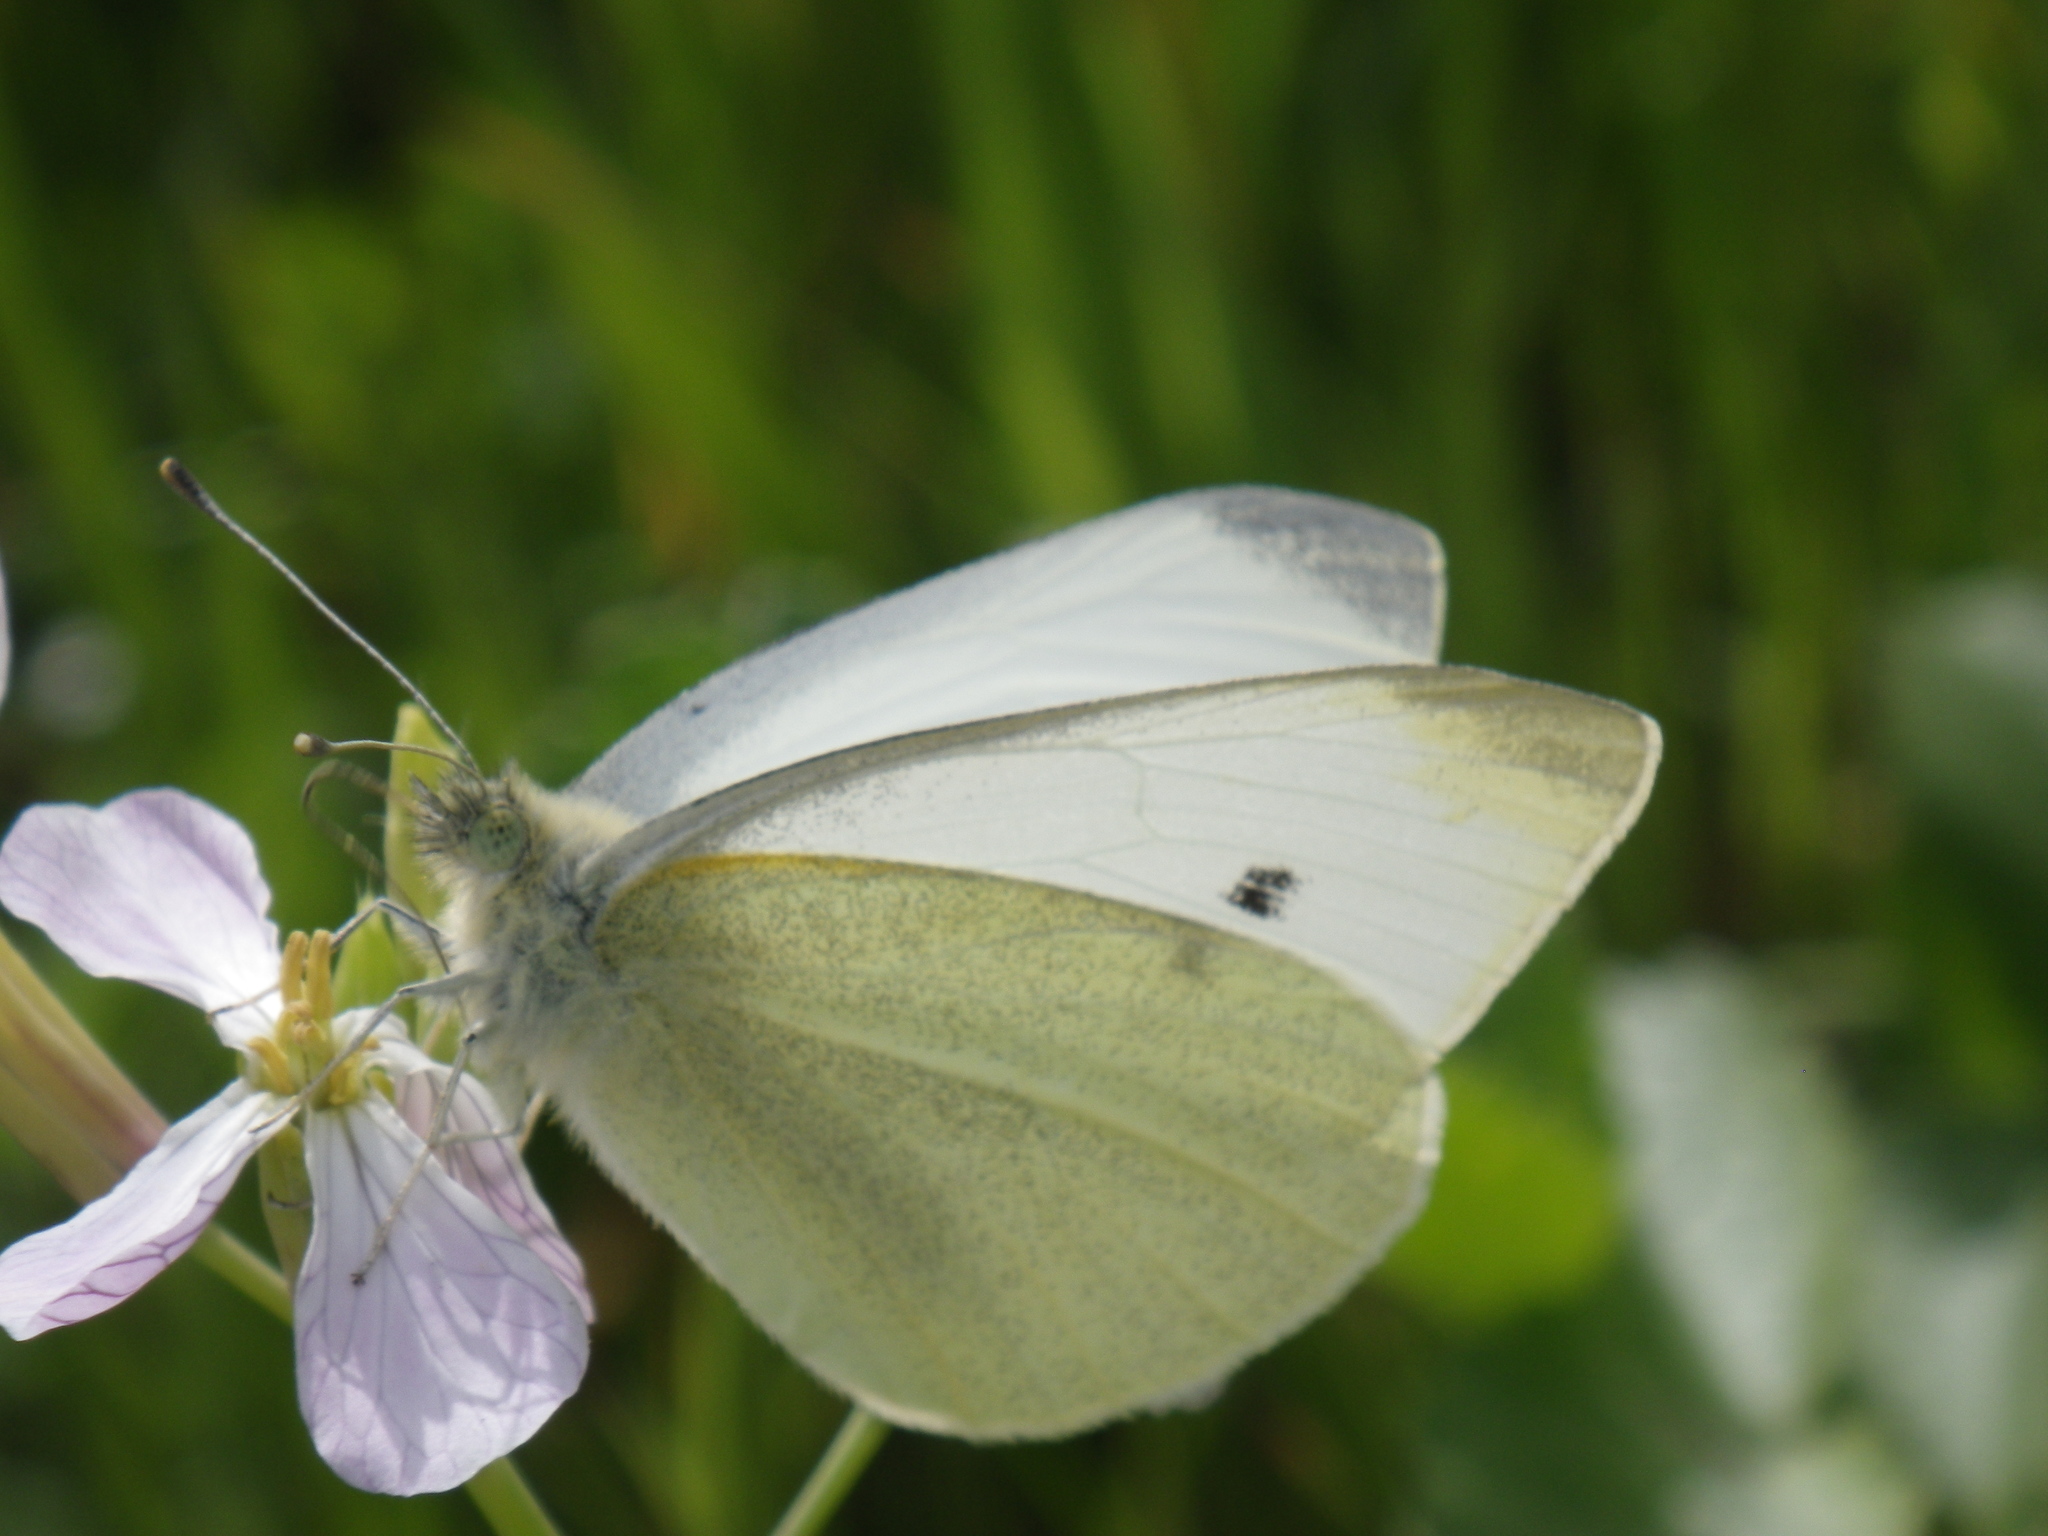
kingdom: Animalia
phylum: Arthropoda
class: Insecta
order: Lepidoptera
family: Pieridae
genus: Pieris
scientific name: Pieris rapae
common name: Small white
